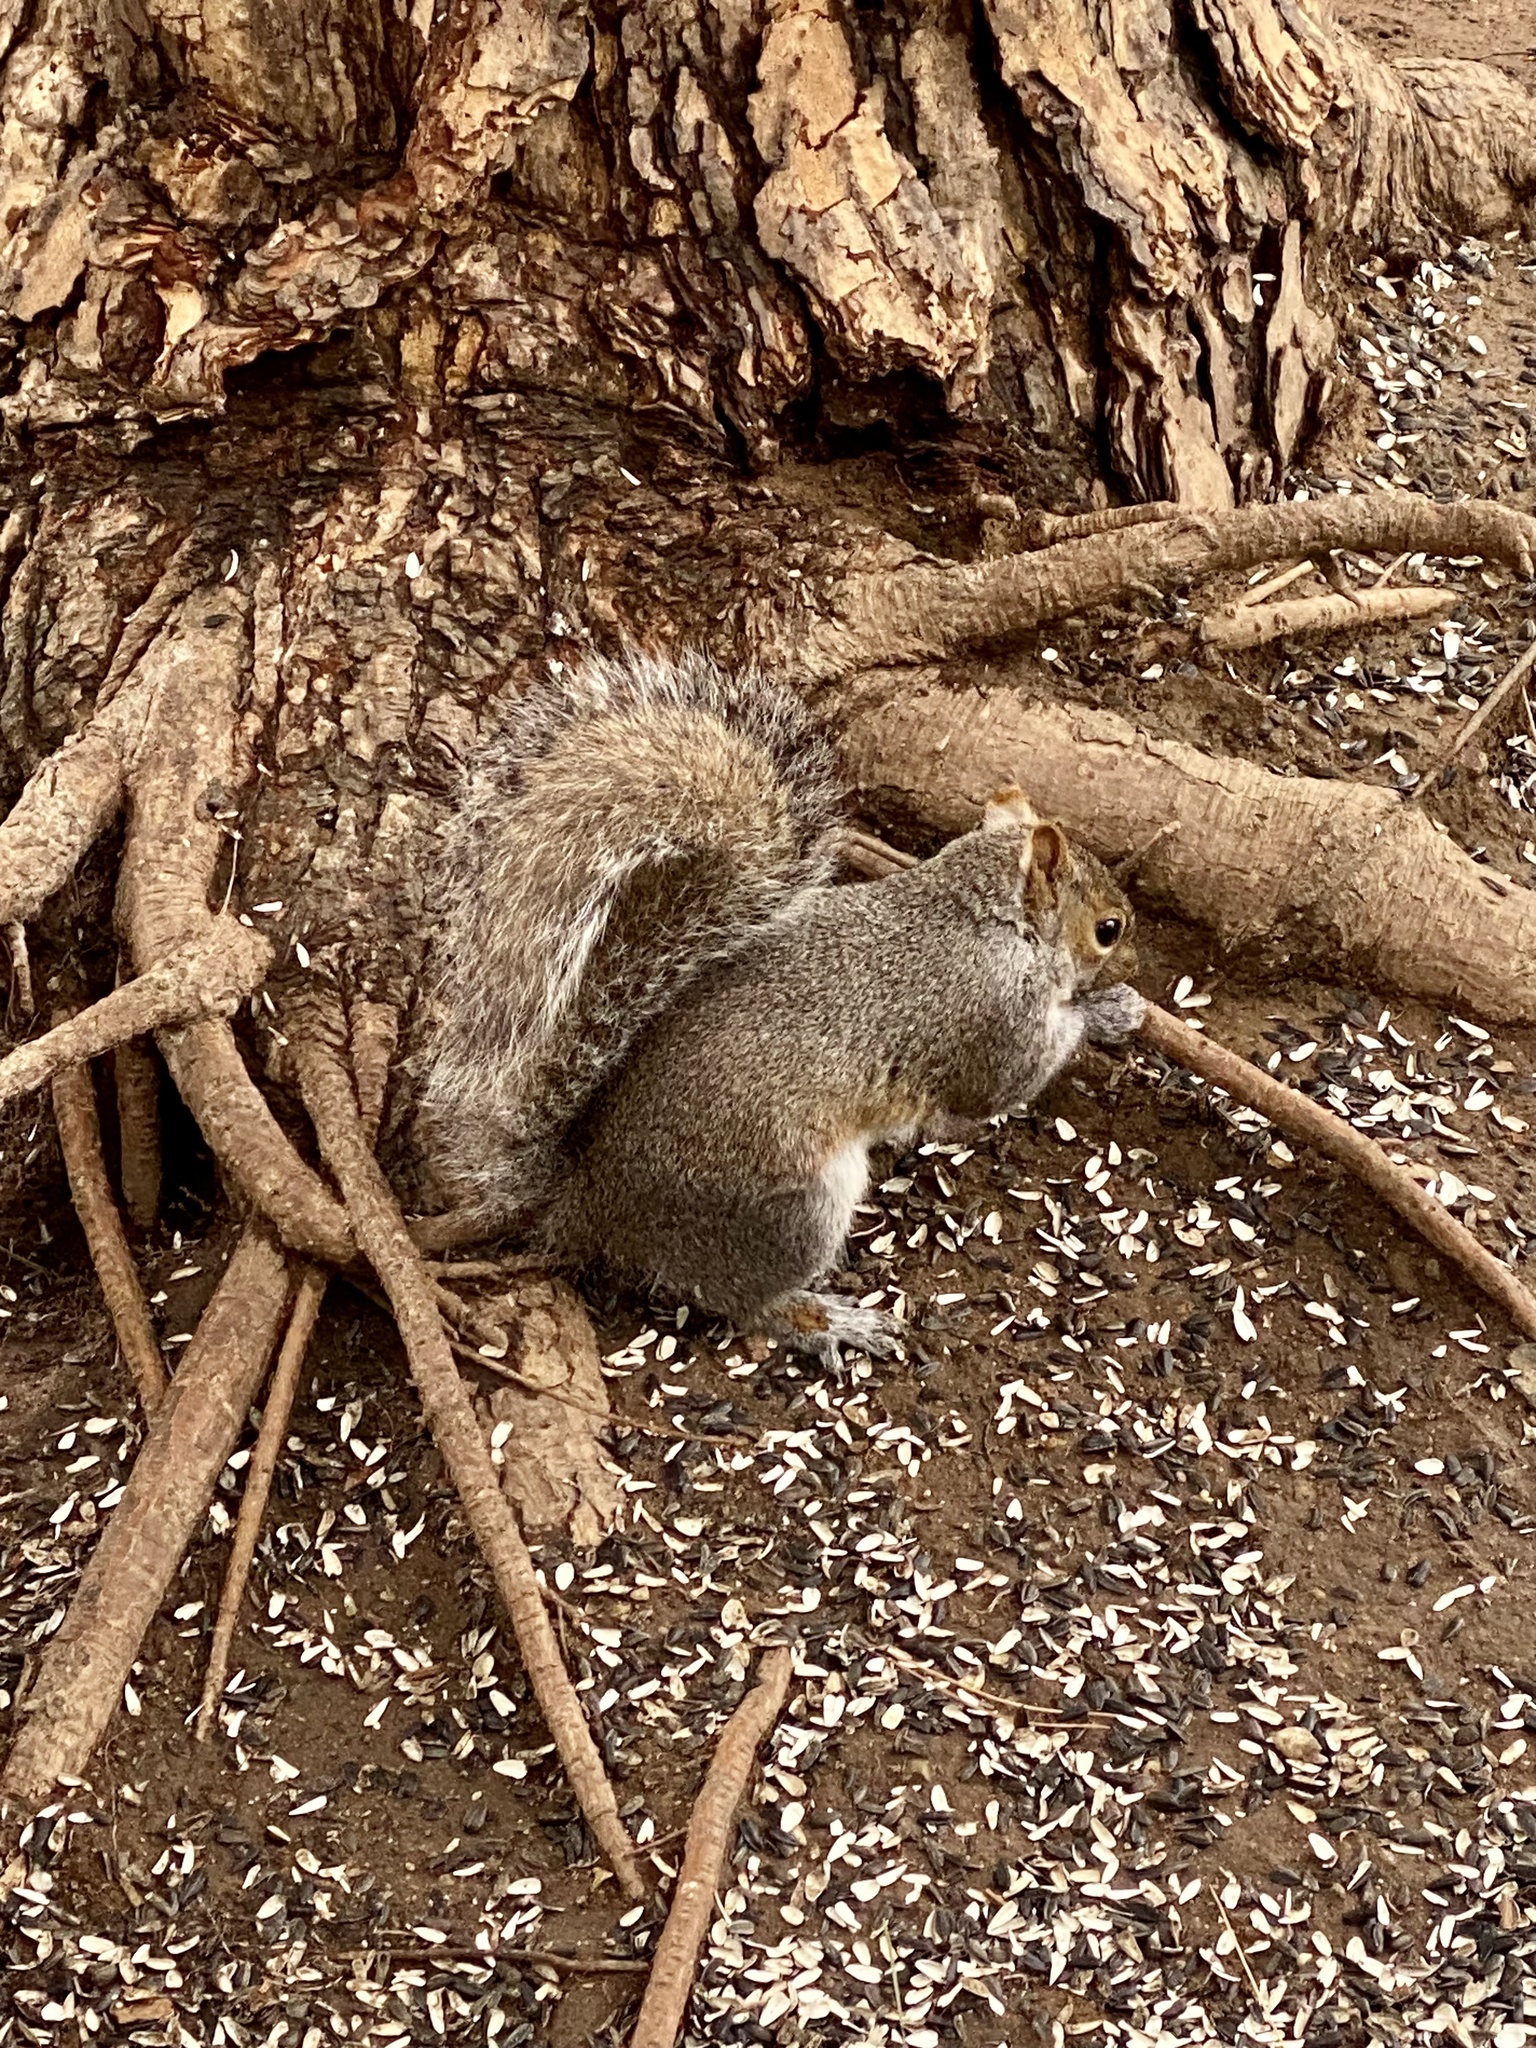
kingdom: Animalia
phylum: Chordata
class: Mammalia
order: Rodentia
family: Sciuridae
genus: Sciurus
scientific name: Sciurus carolinensis
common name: Eastern gray squirrel
